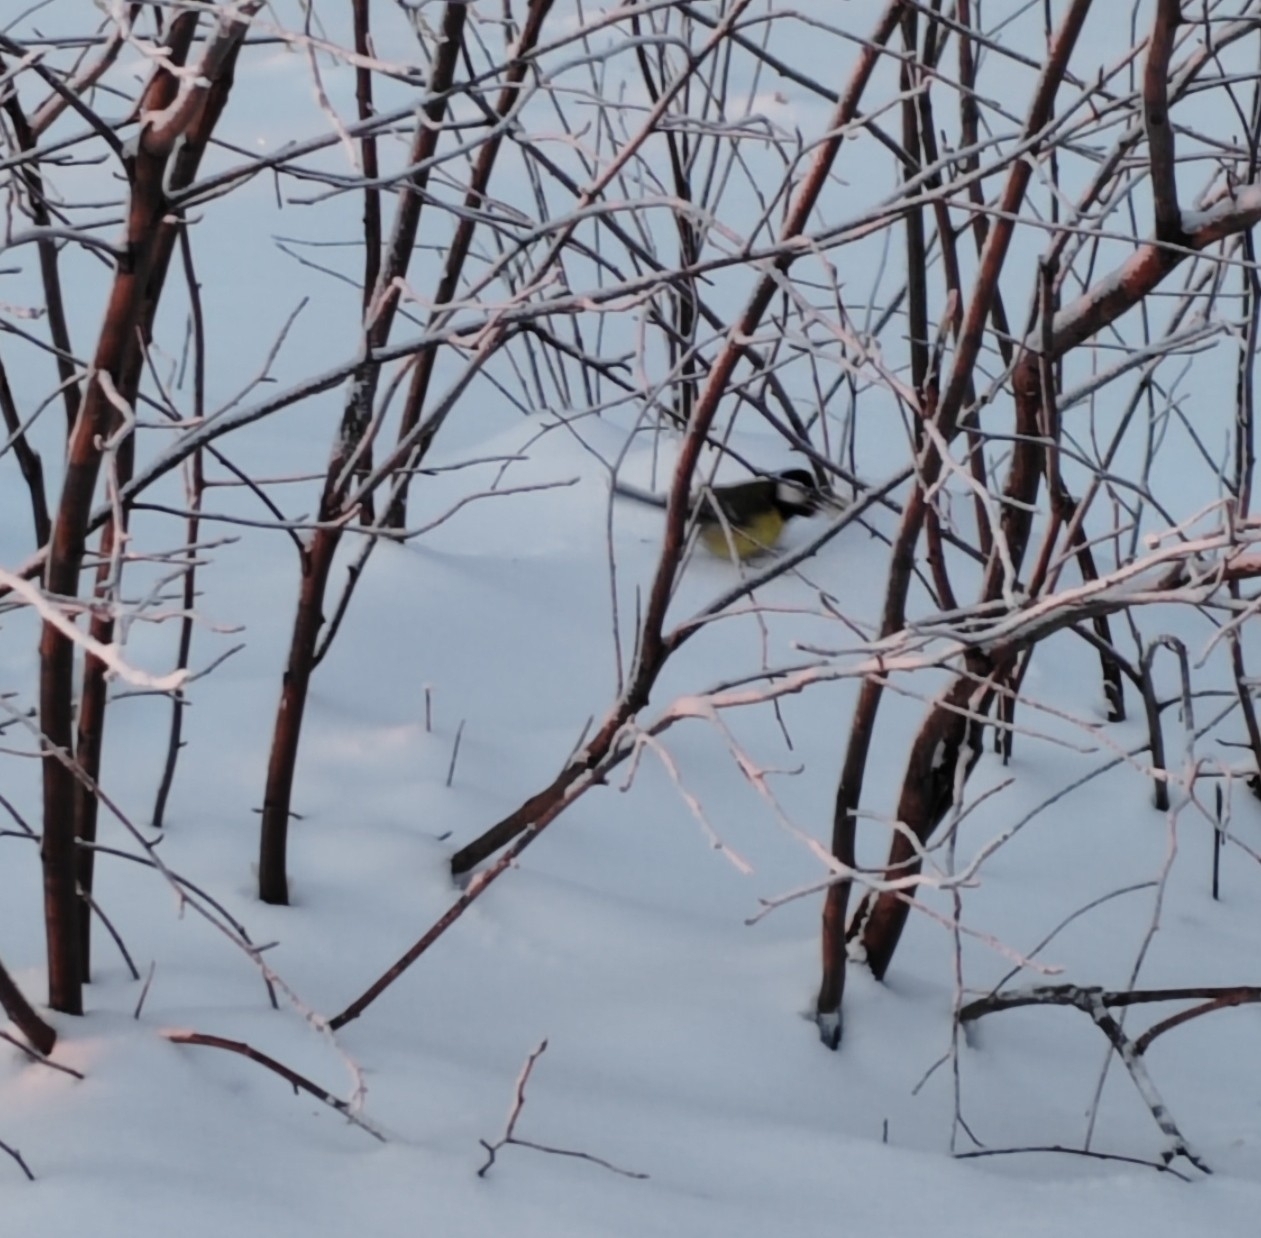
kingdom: Animalia
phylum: Chordata
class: Aves
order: Passeriformes
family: Paridae
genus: Parus
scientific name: Parus major
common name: Great tit
